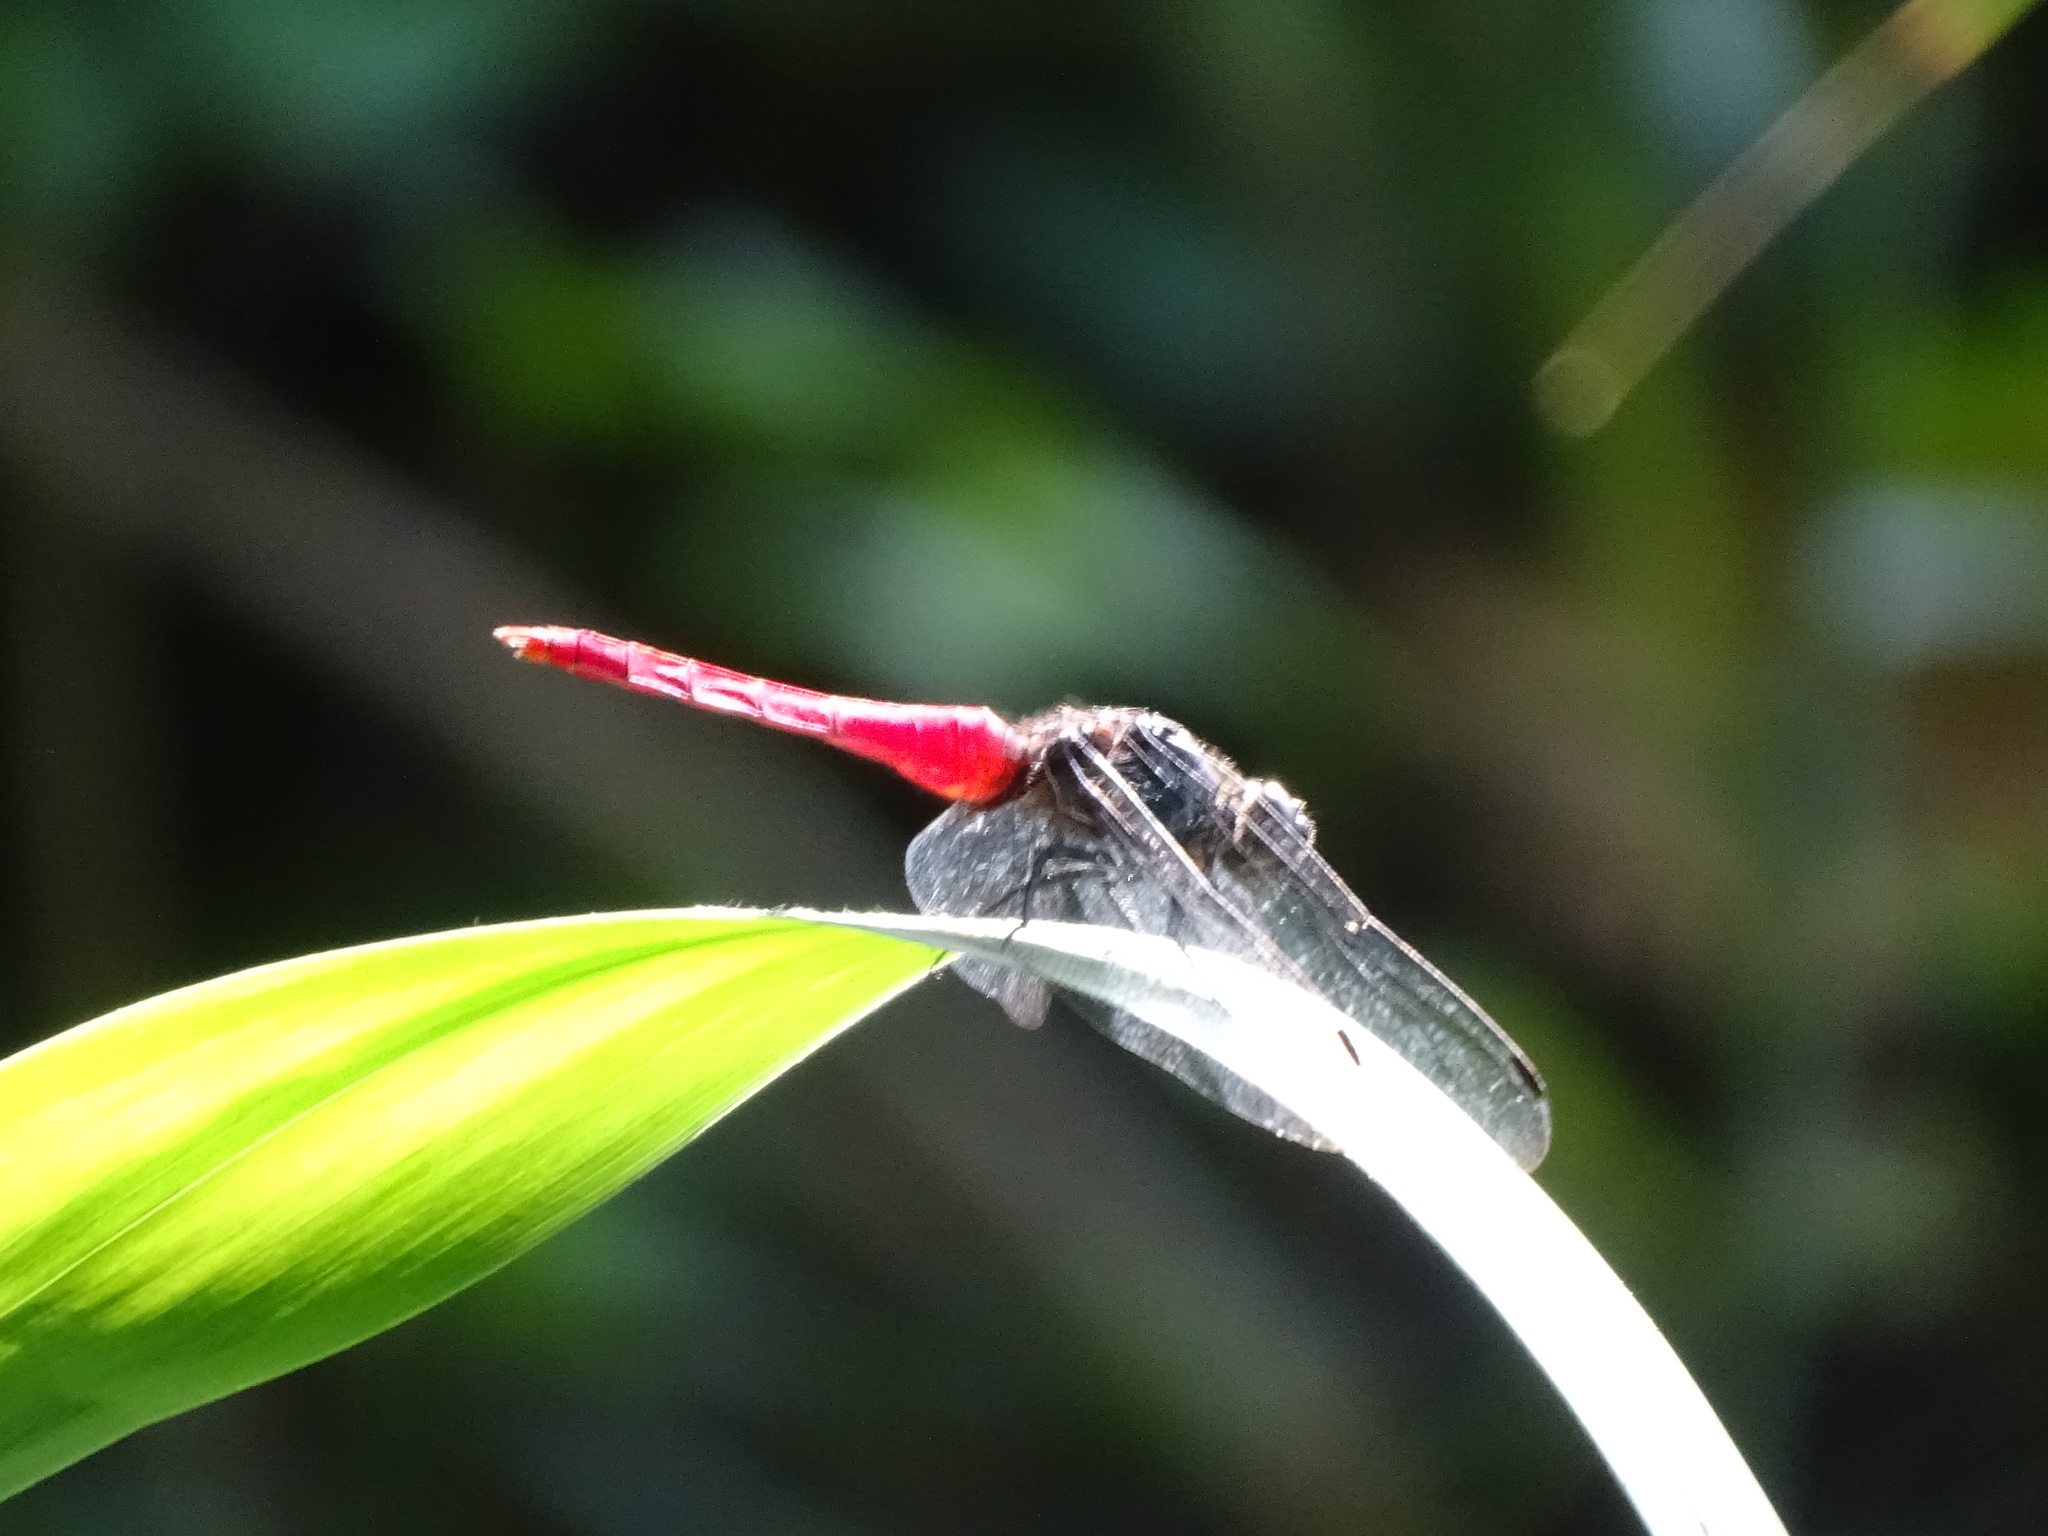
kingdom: Animalia
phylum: Arthropoda
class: Insecta
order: Odonata
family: Libellulidae
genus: Orthetrum
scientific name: Orthetrum pruinosum
